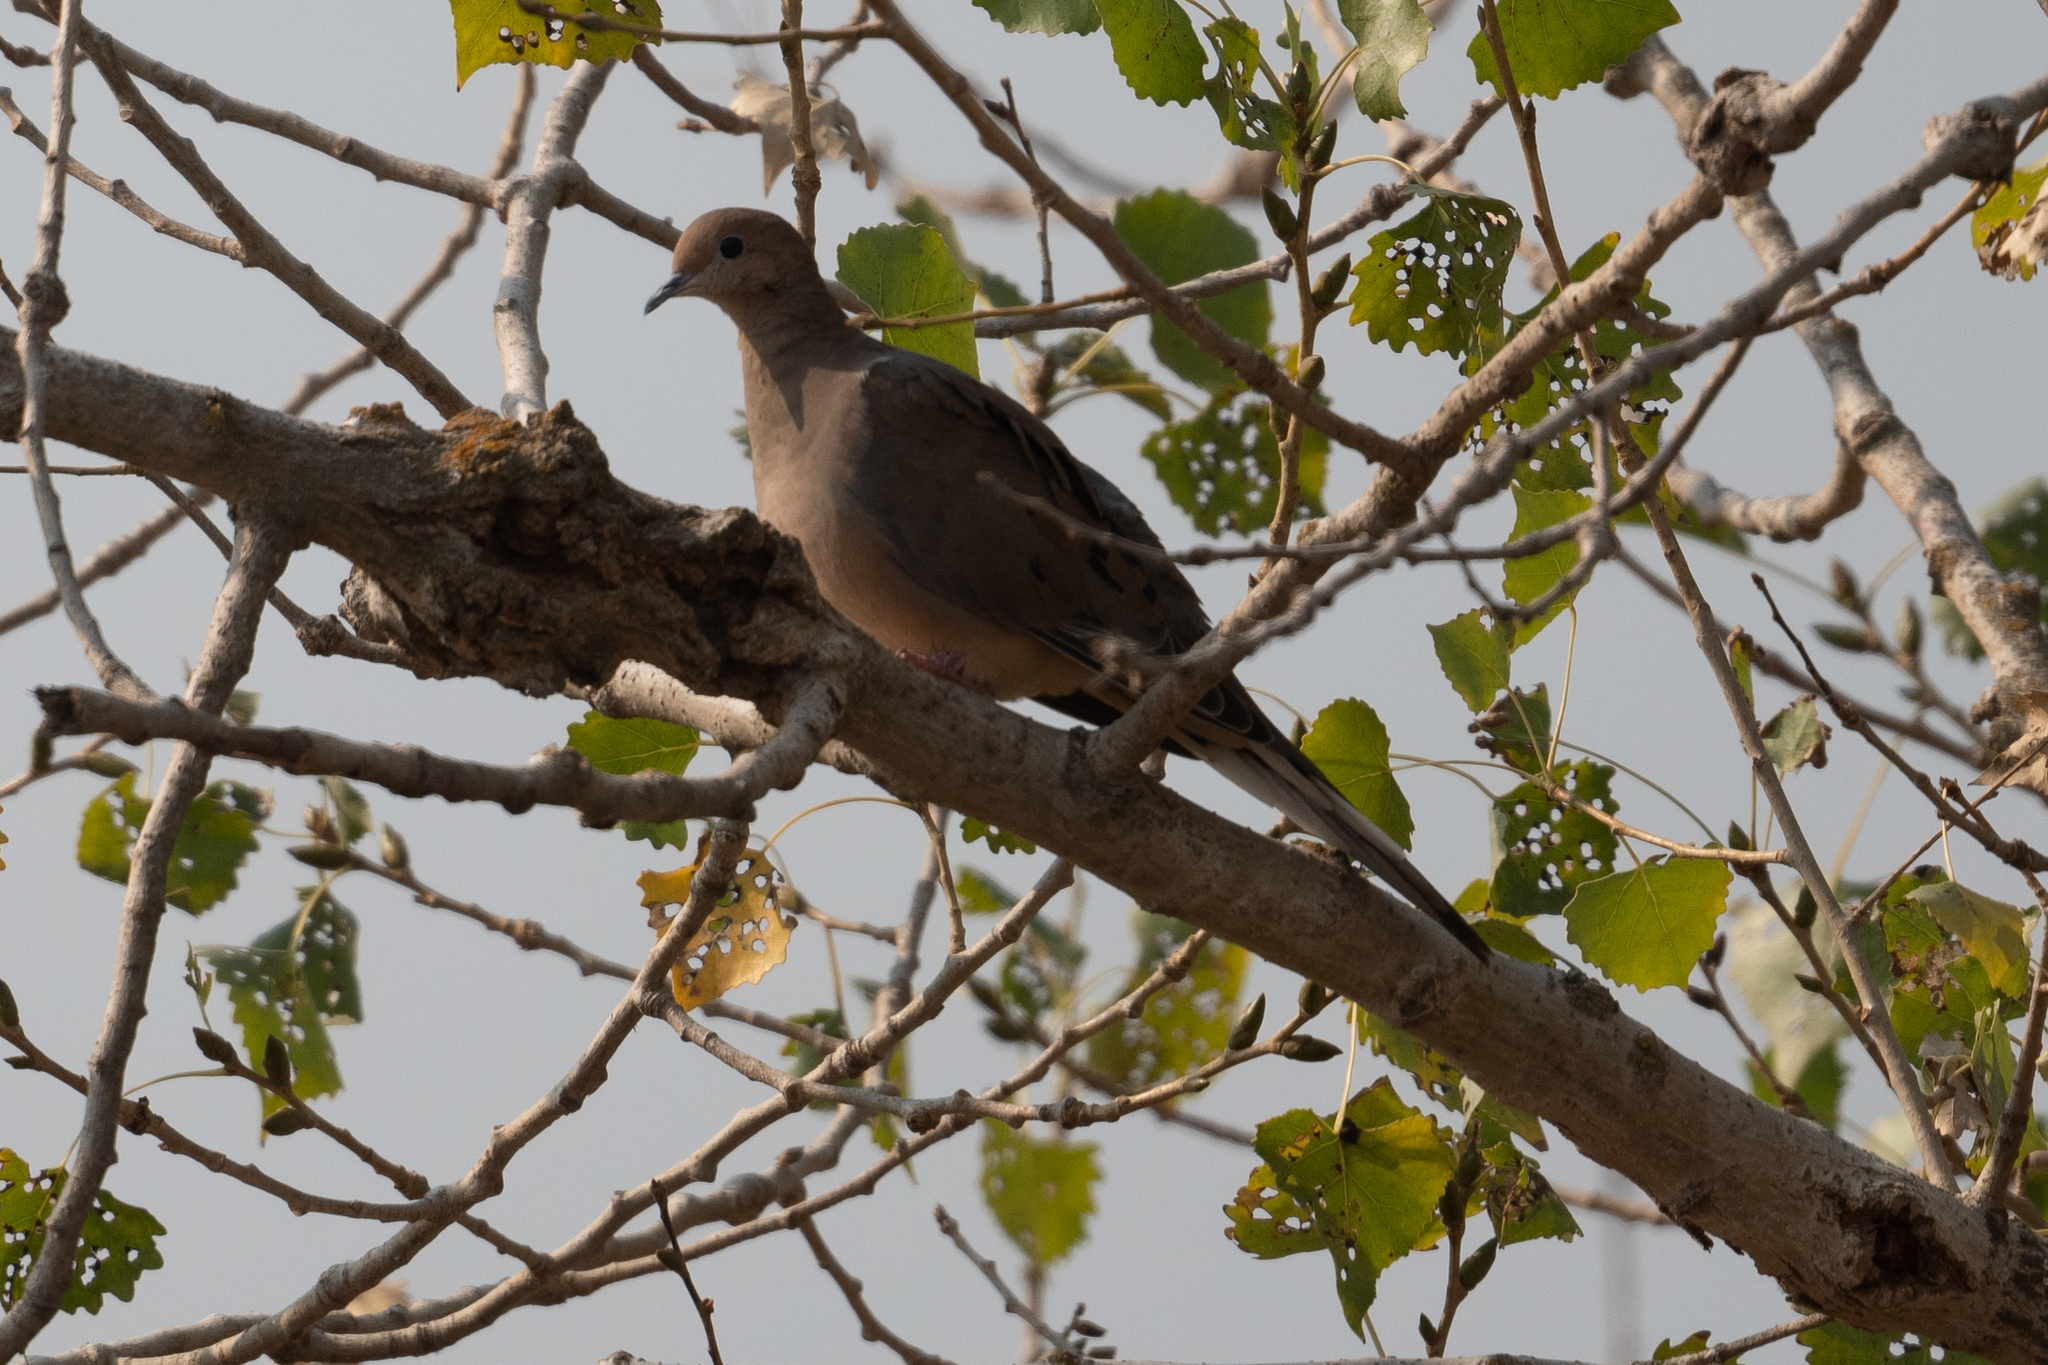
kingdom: Animalia
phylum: Chordata
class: Aves
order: Columbiformes
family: Columbidae
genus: Zenaida
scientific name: Zenaida macroura
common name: Mourning dove
